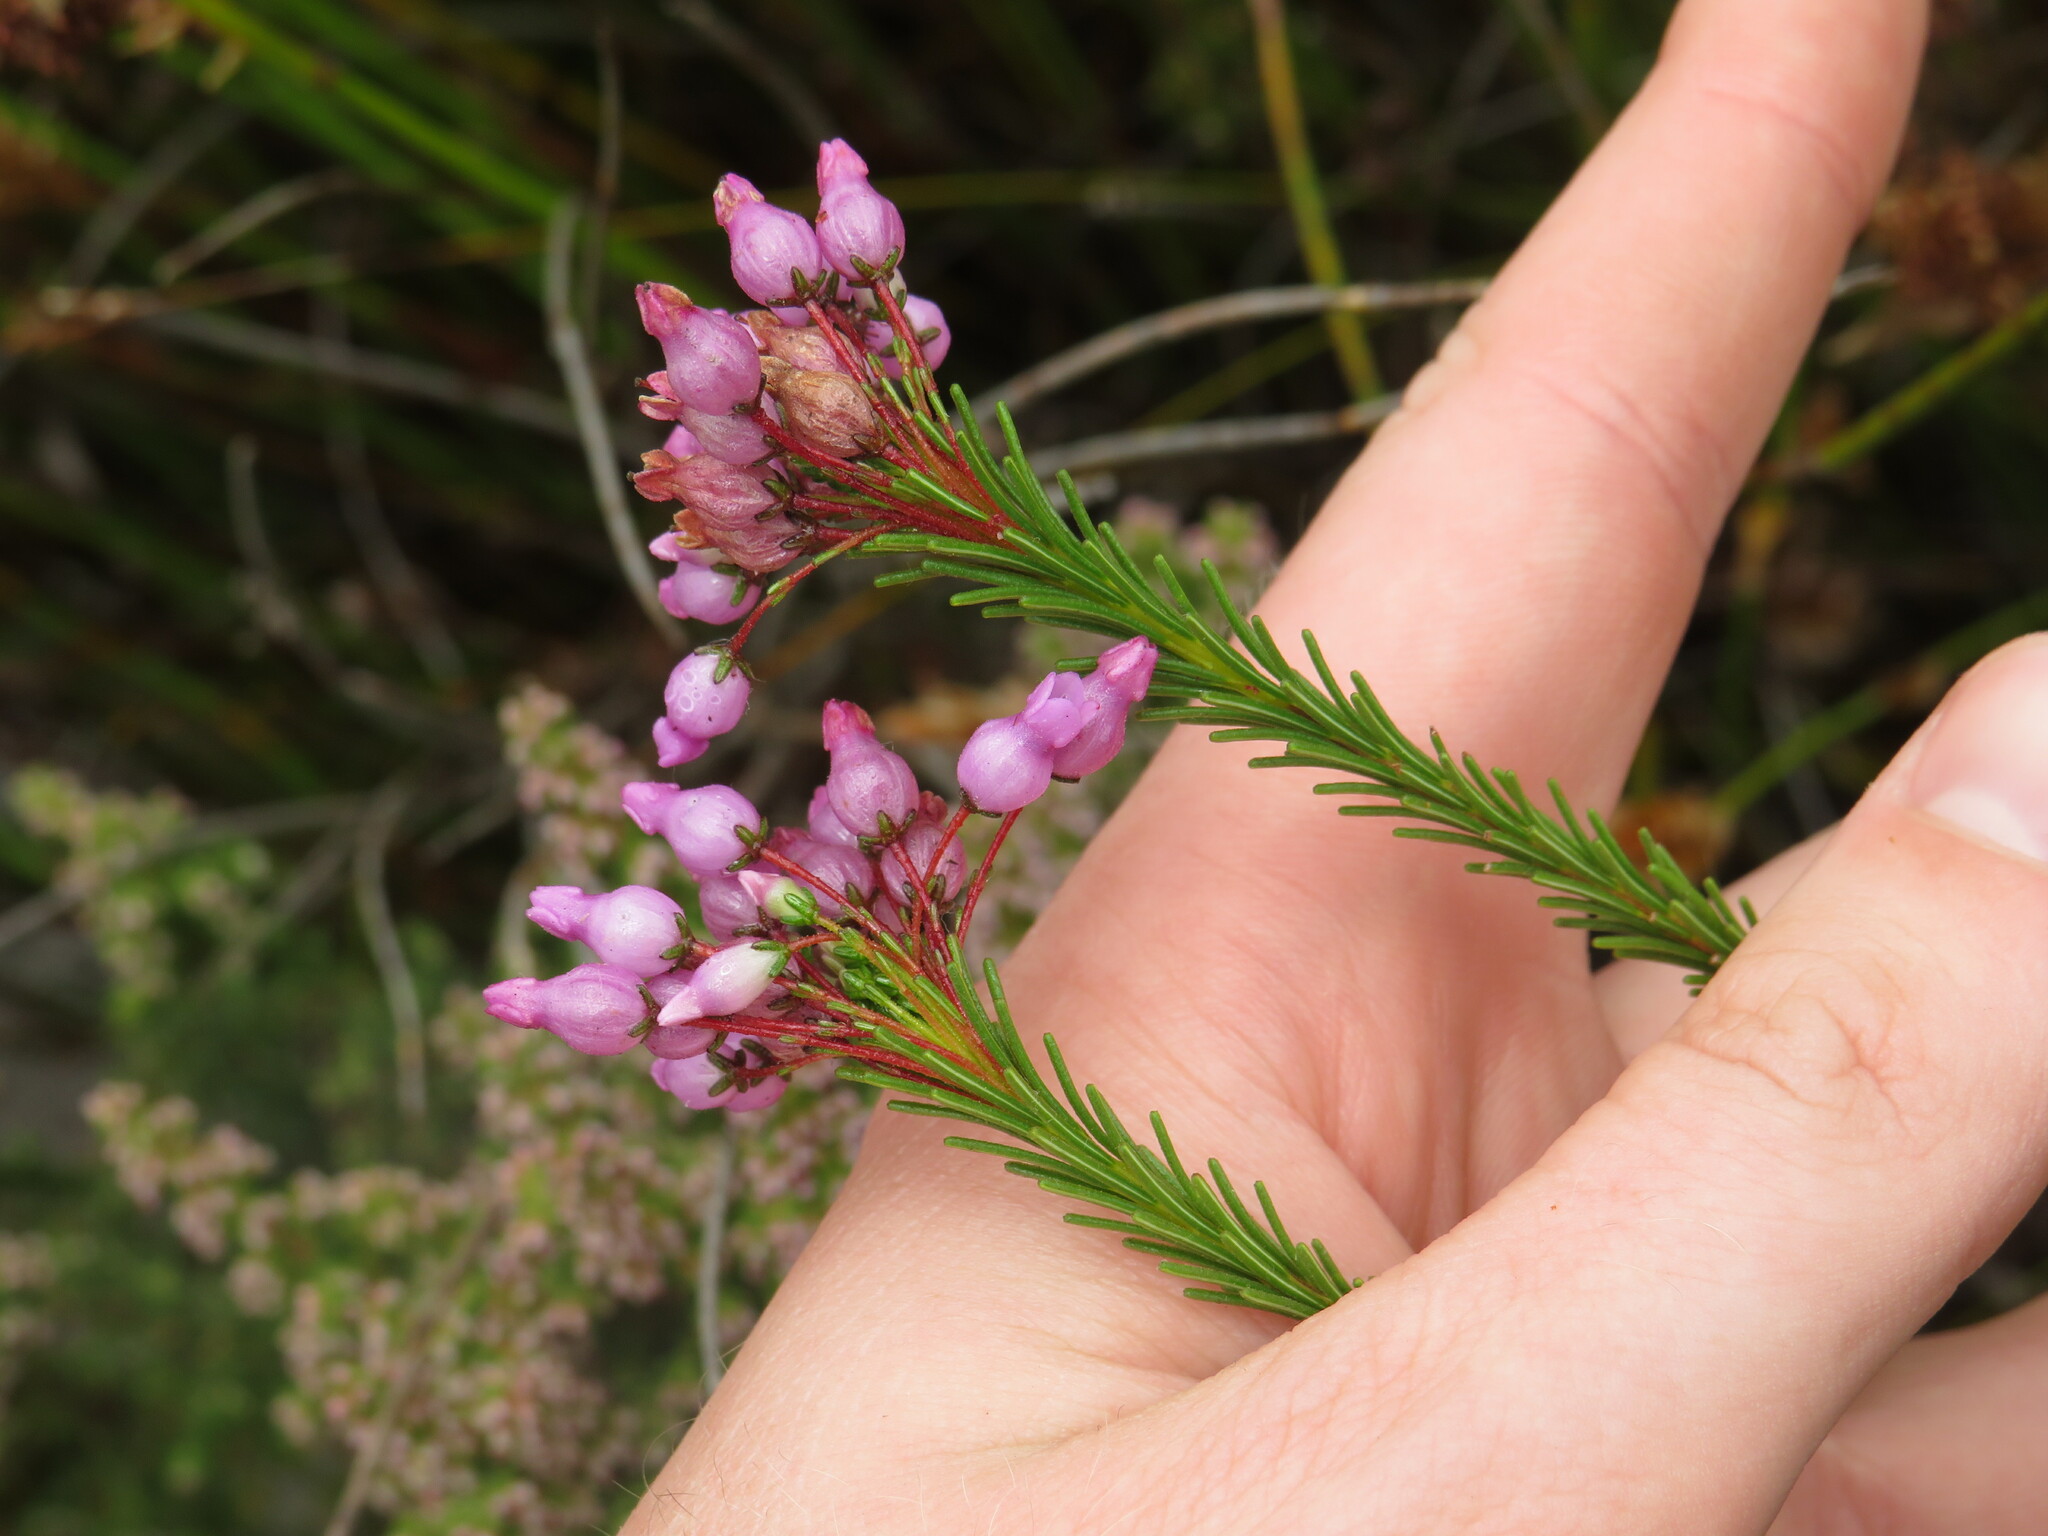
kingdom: Plantae
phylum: Tracheophyta
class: Magnoliopsida
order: Ericales
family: Ericaceae
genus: Erica
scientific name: Erica obliqua
